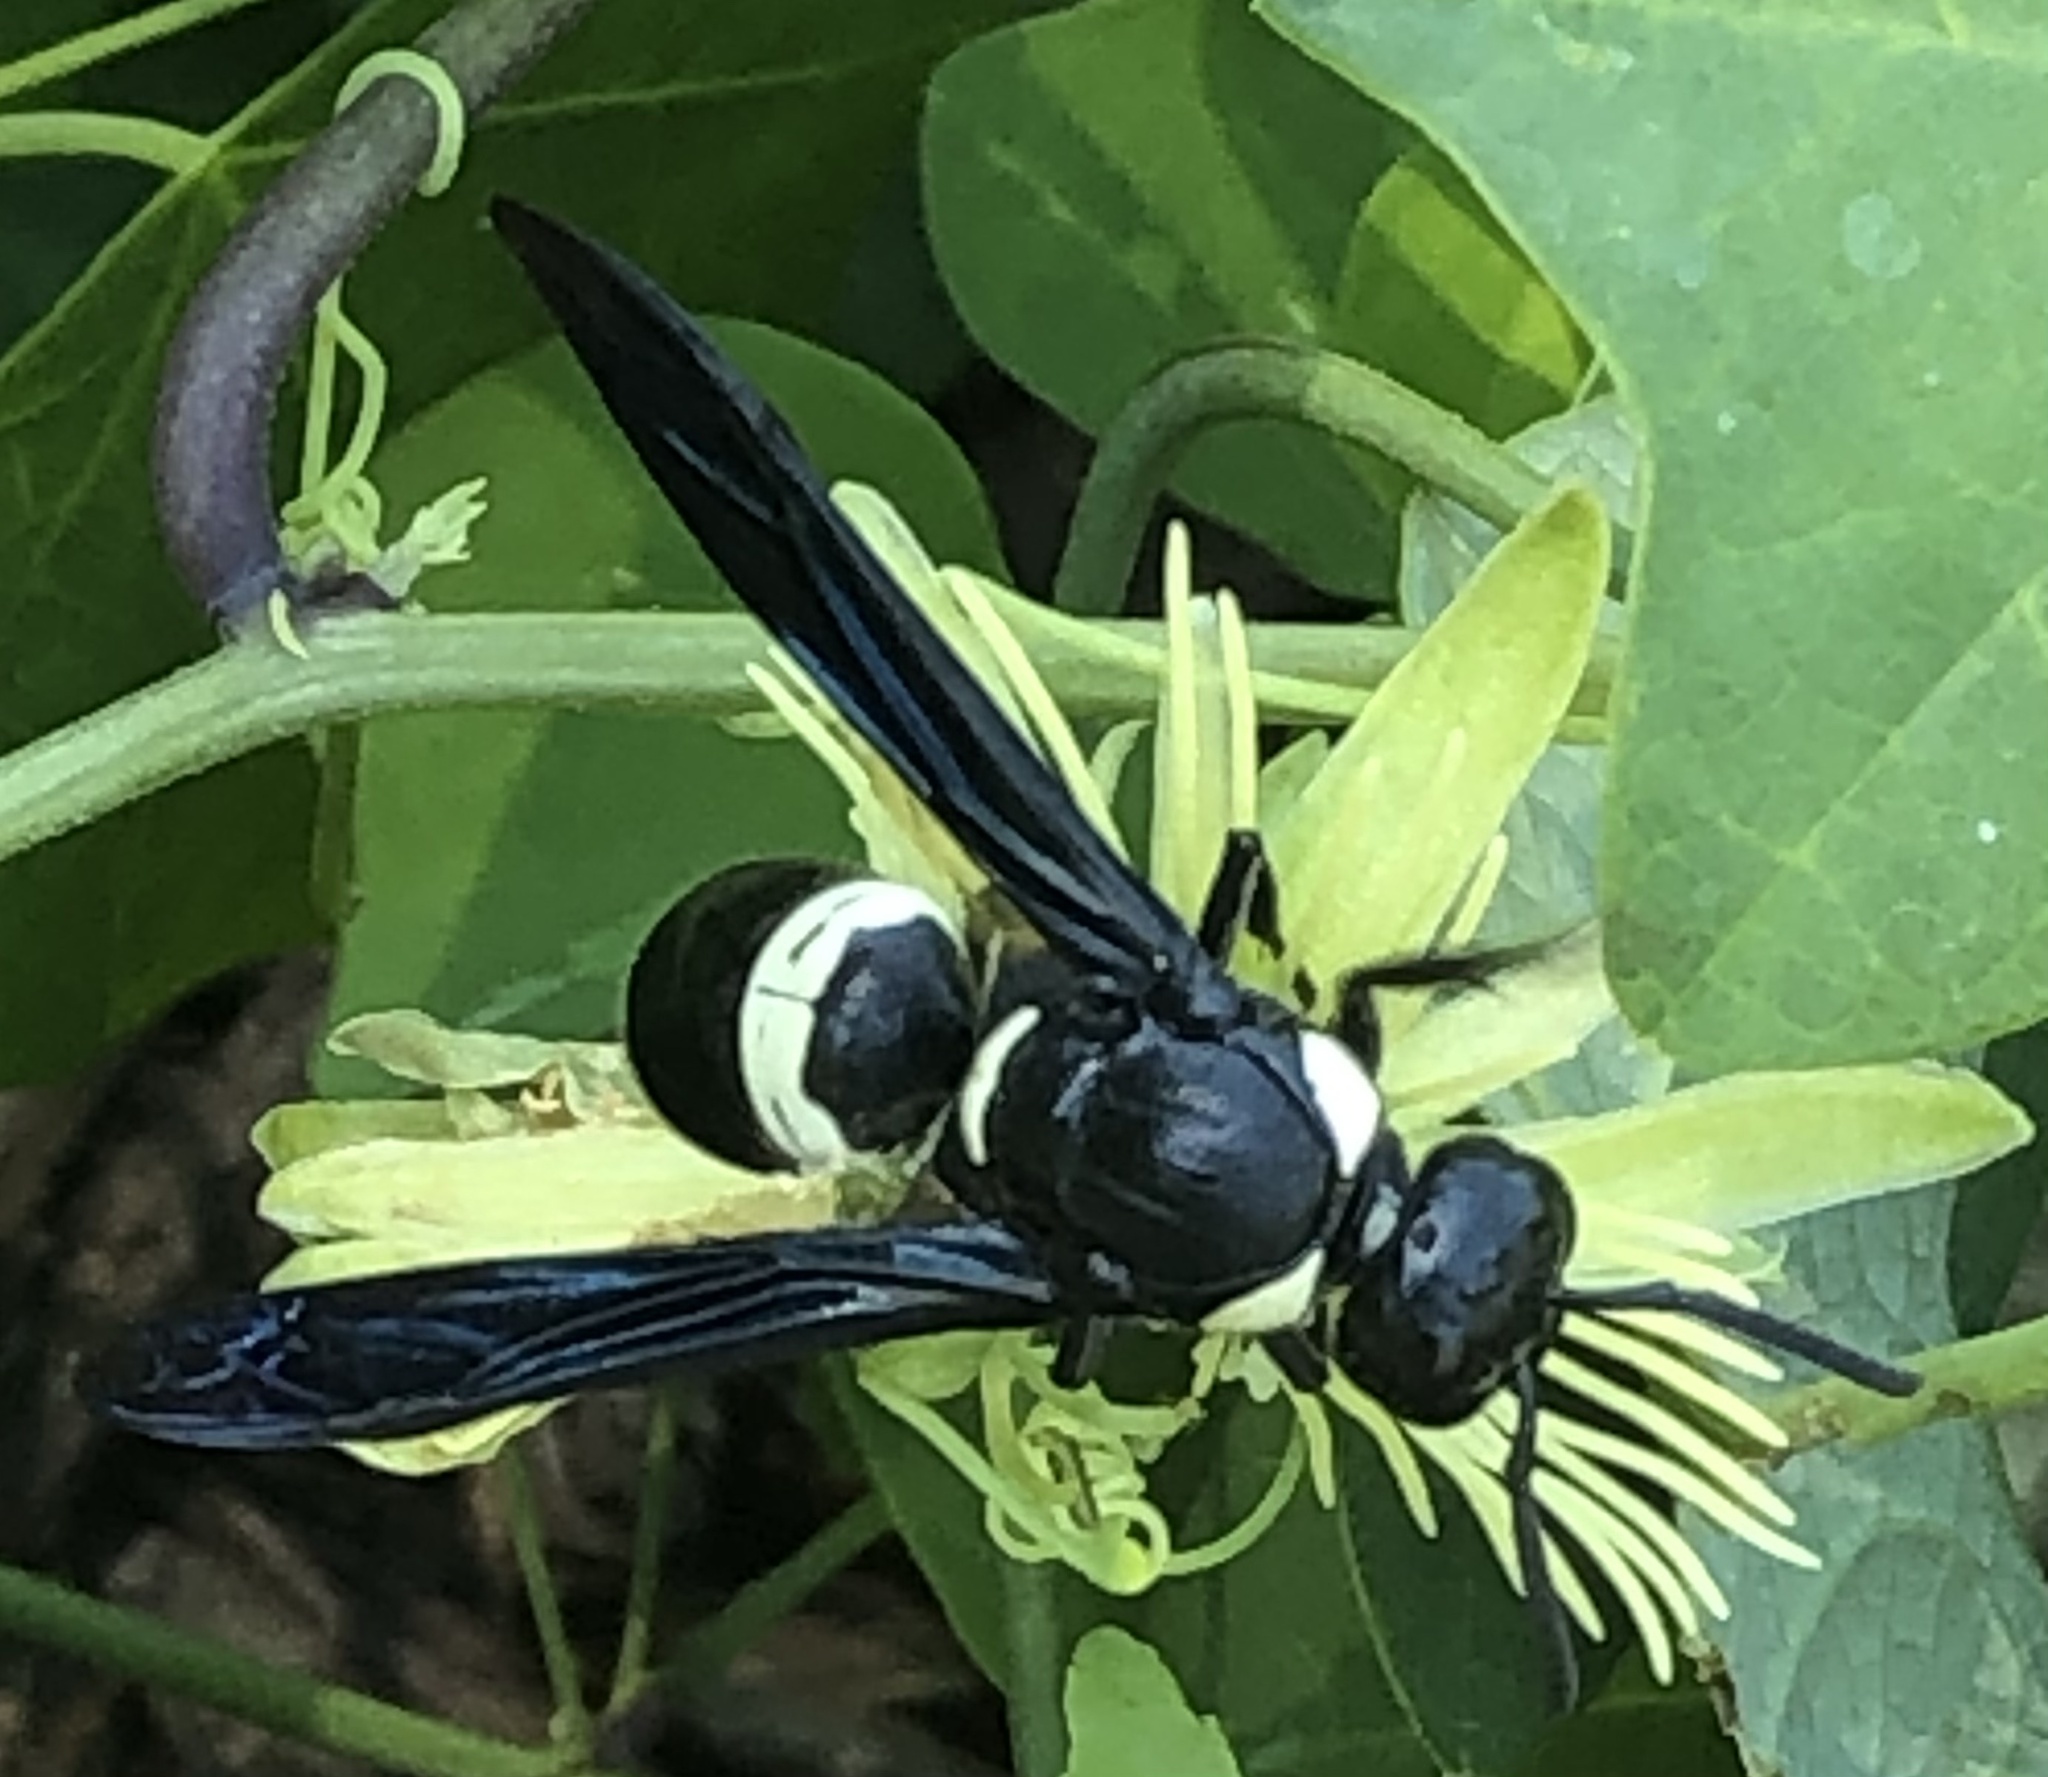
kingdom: Animalia
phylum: Arthropoda
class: Insecta
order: Hymenoptera
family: Eumenidae
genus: Monobia
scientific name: Monobia quadridens
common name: Four-toothed mason wasp
